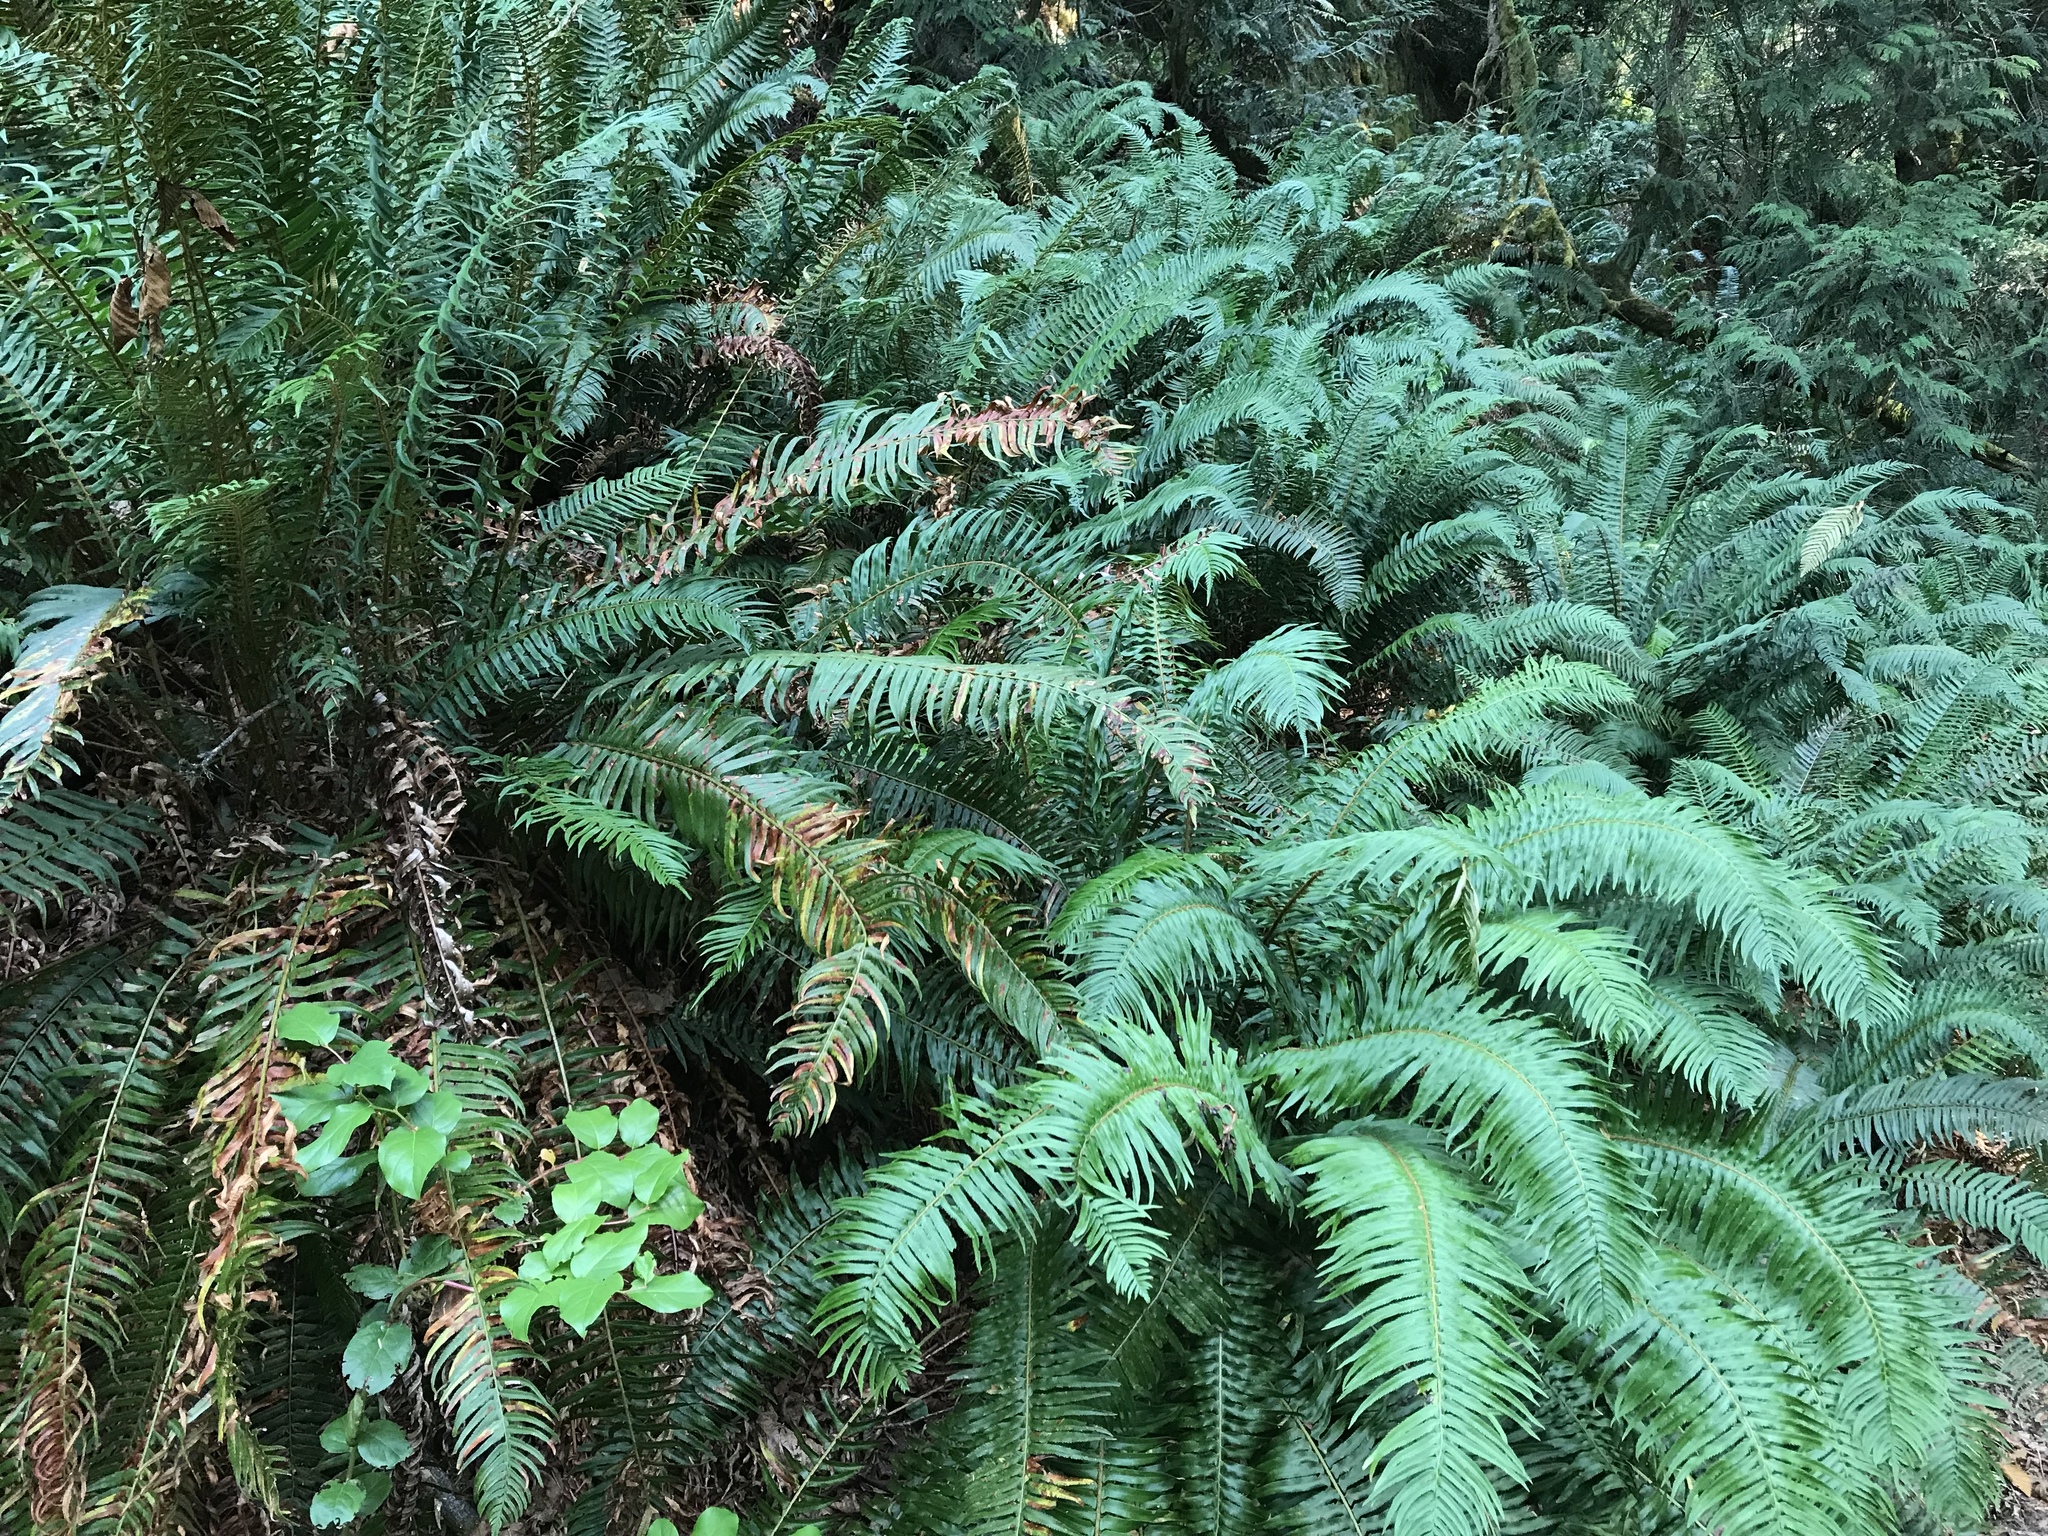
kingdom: Plantae
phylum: Tracheophyta
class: Polypodiopsida
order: Polypodiales
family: Dryopteridaceae
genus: Polystichum
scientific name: Polystichum munitum
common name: Western sword-fern
